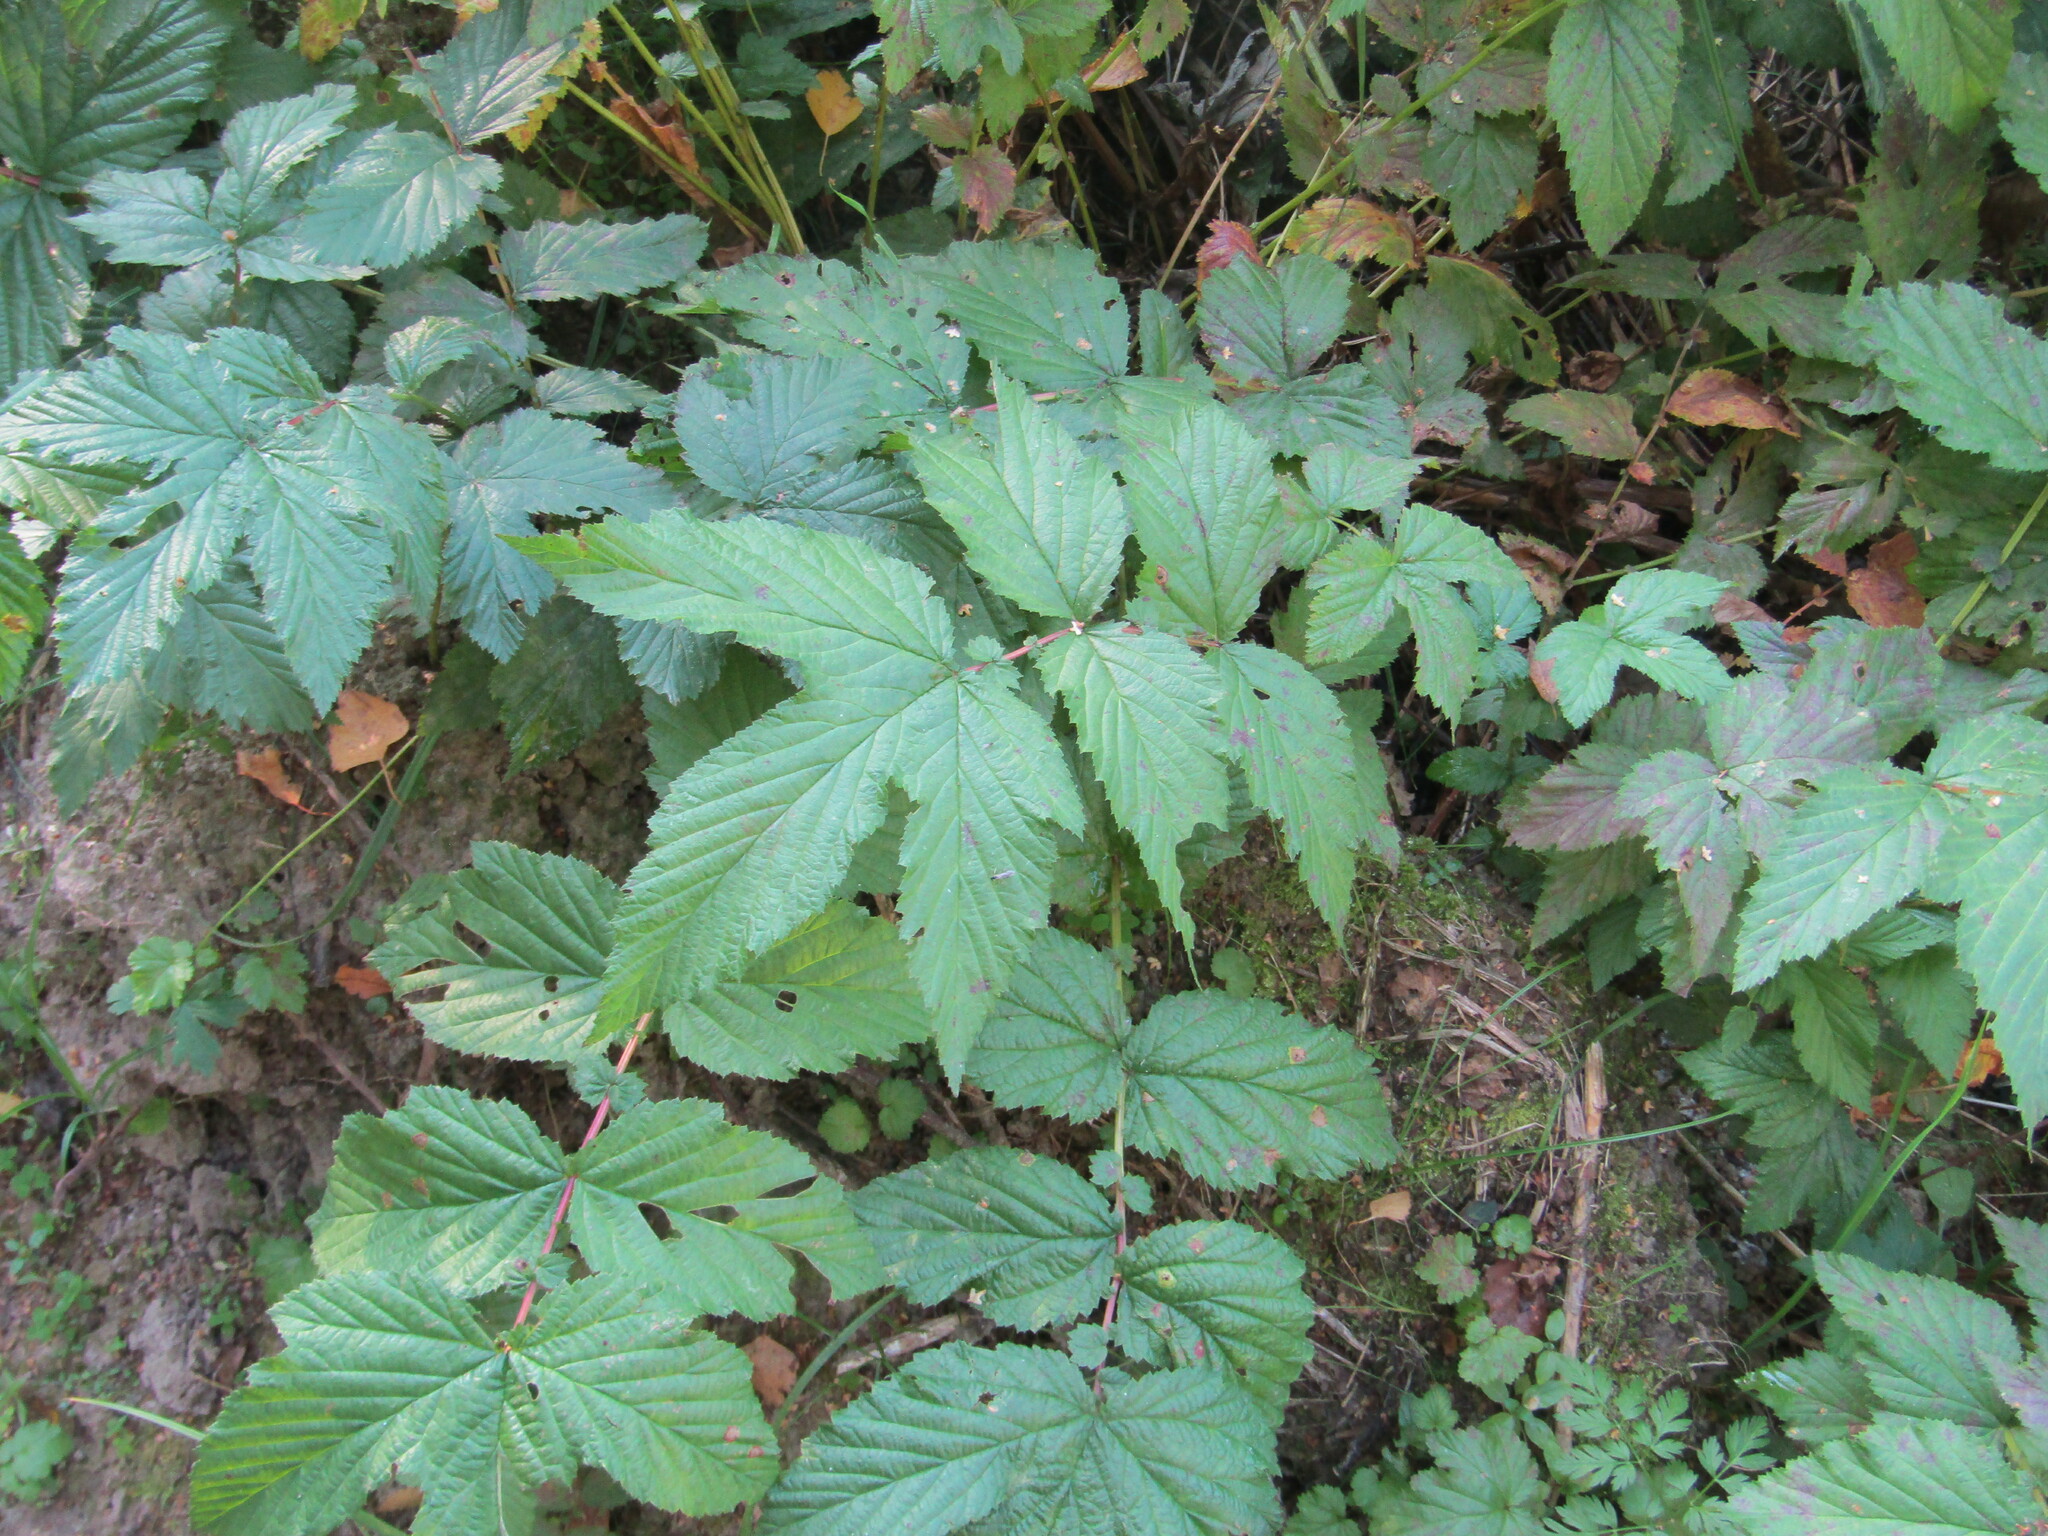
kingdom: Plantae
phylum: Tracheophyta
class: Magnoliopsida
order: Rosales
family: Rosaceae
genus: Filipendula
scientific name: Filipendula ulmaria
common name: Meadowsweet
